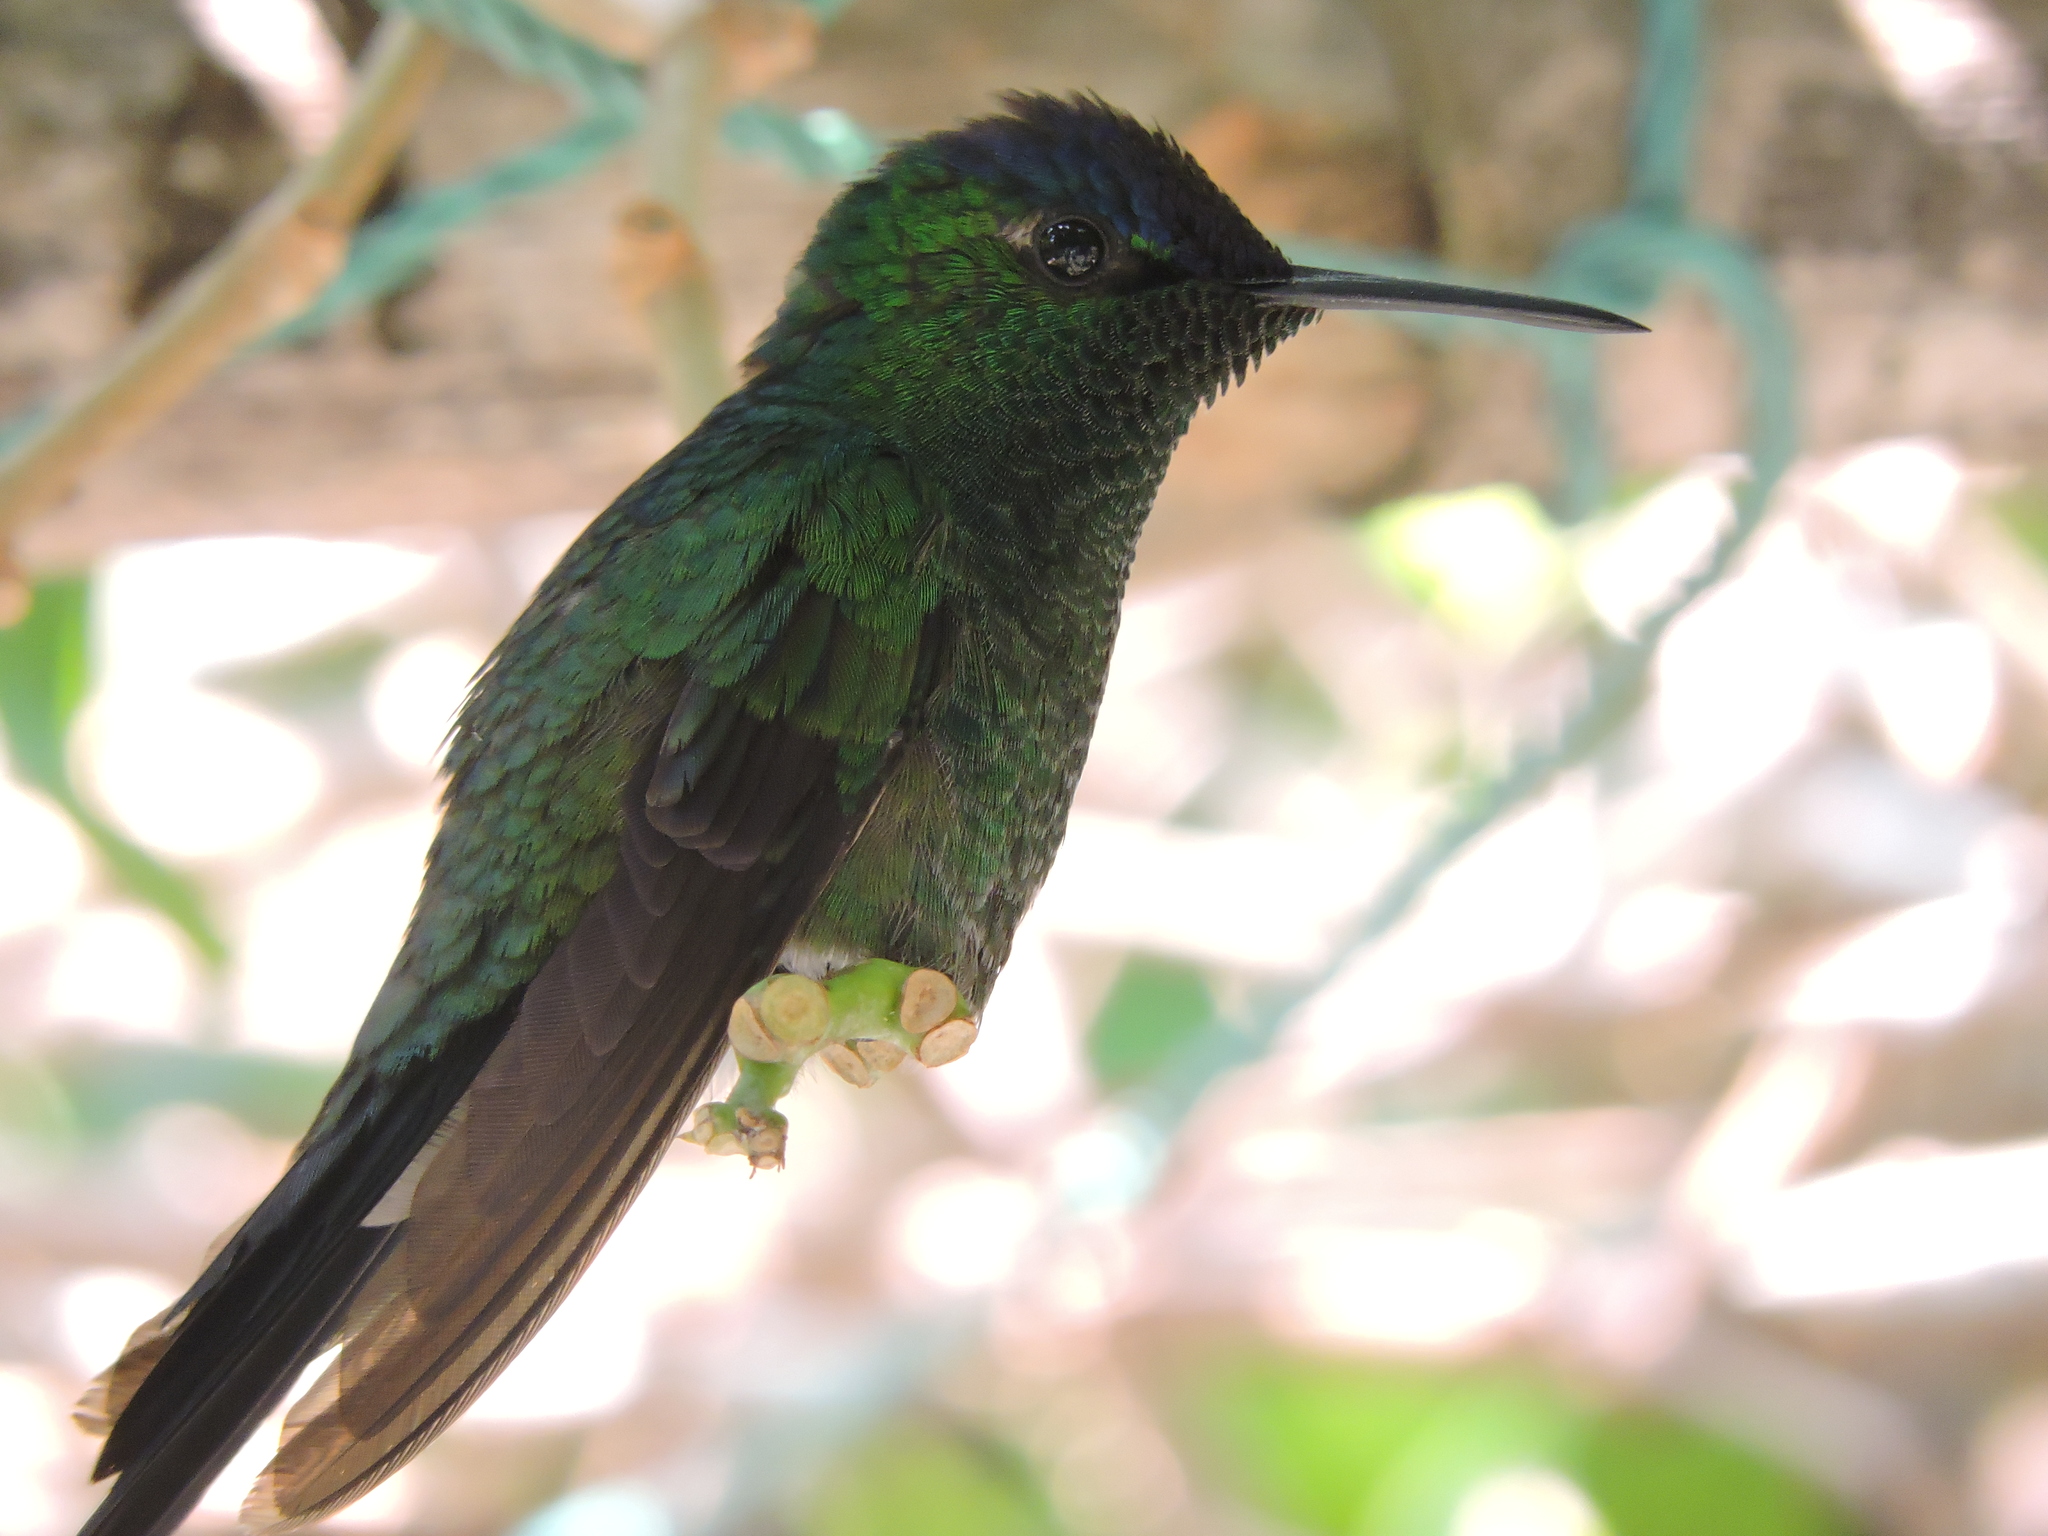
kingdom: Animalia
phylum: Chordata
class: Aves
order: Apodiformes
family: Trochilidae
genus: Thalurania
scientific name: Thalurania glaucopis
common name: Violet-capped woodnymph
